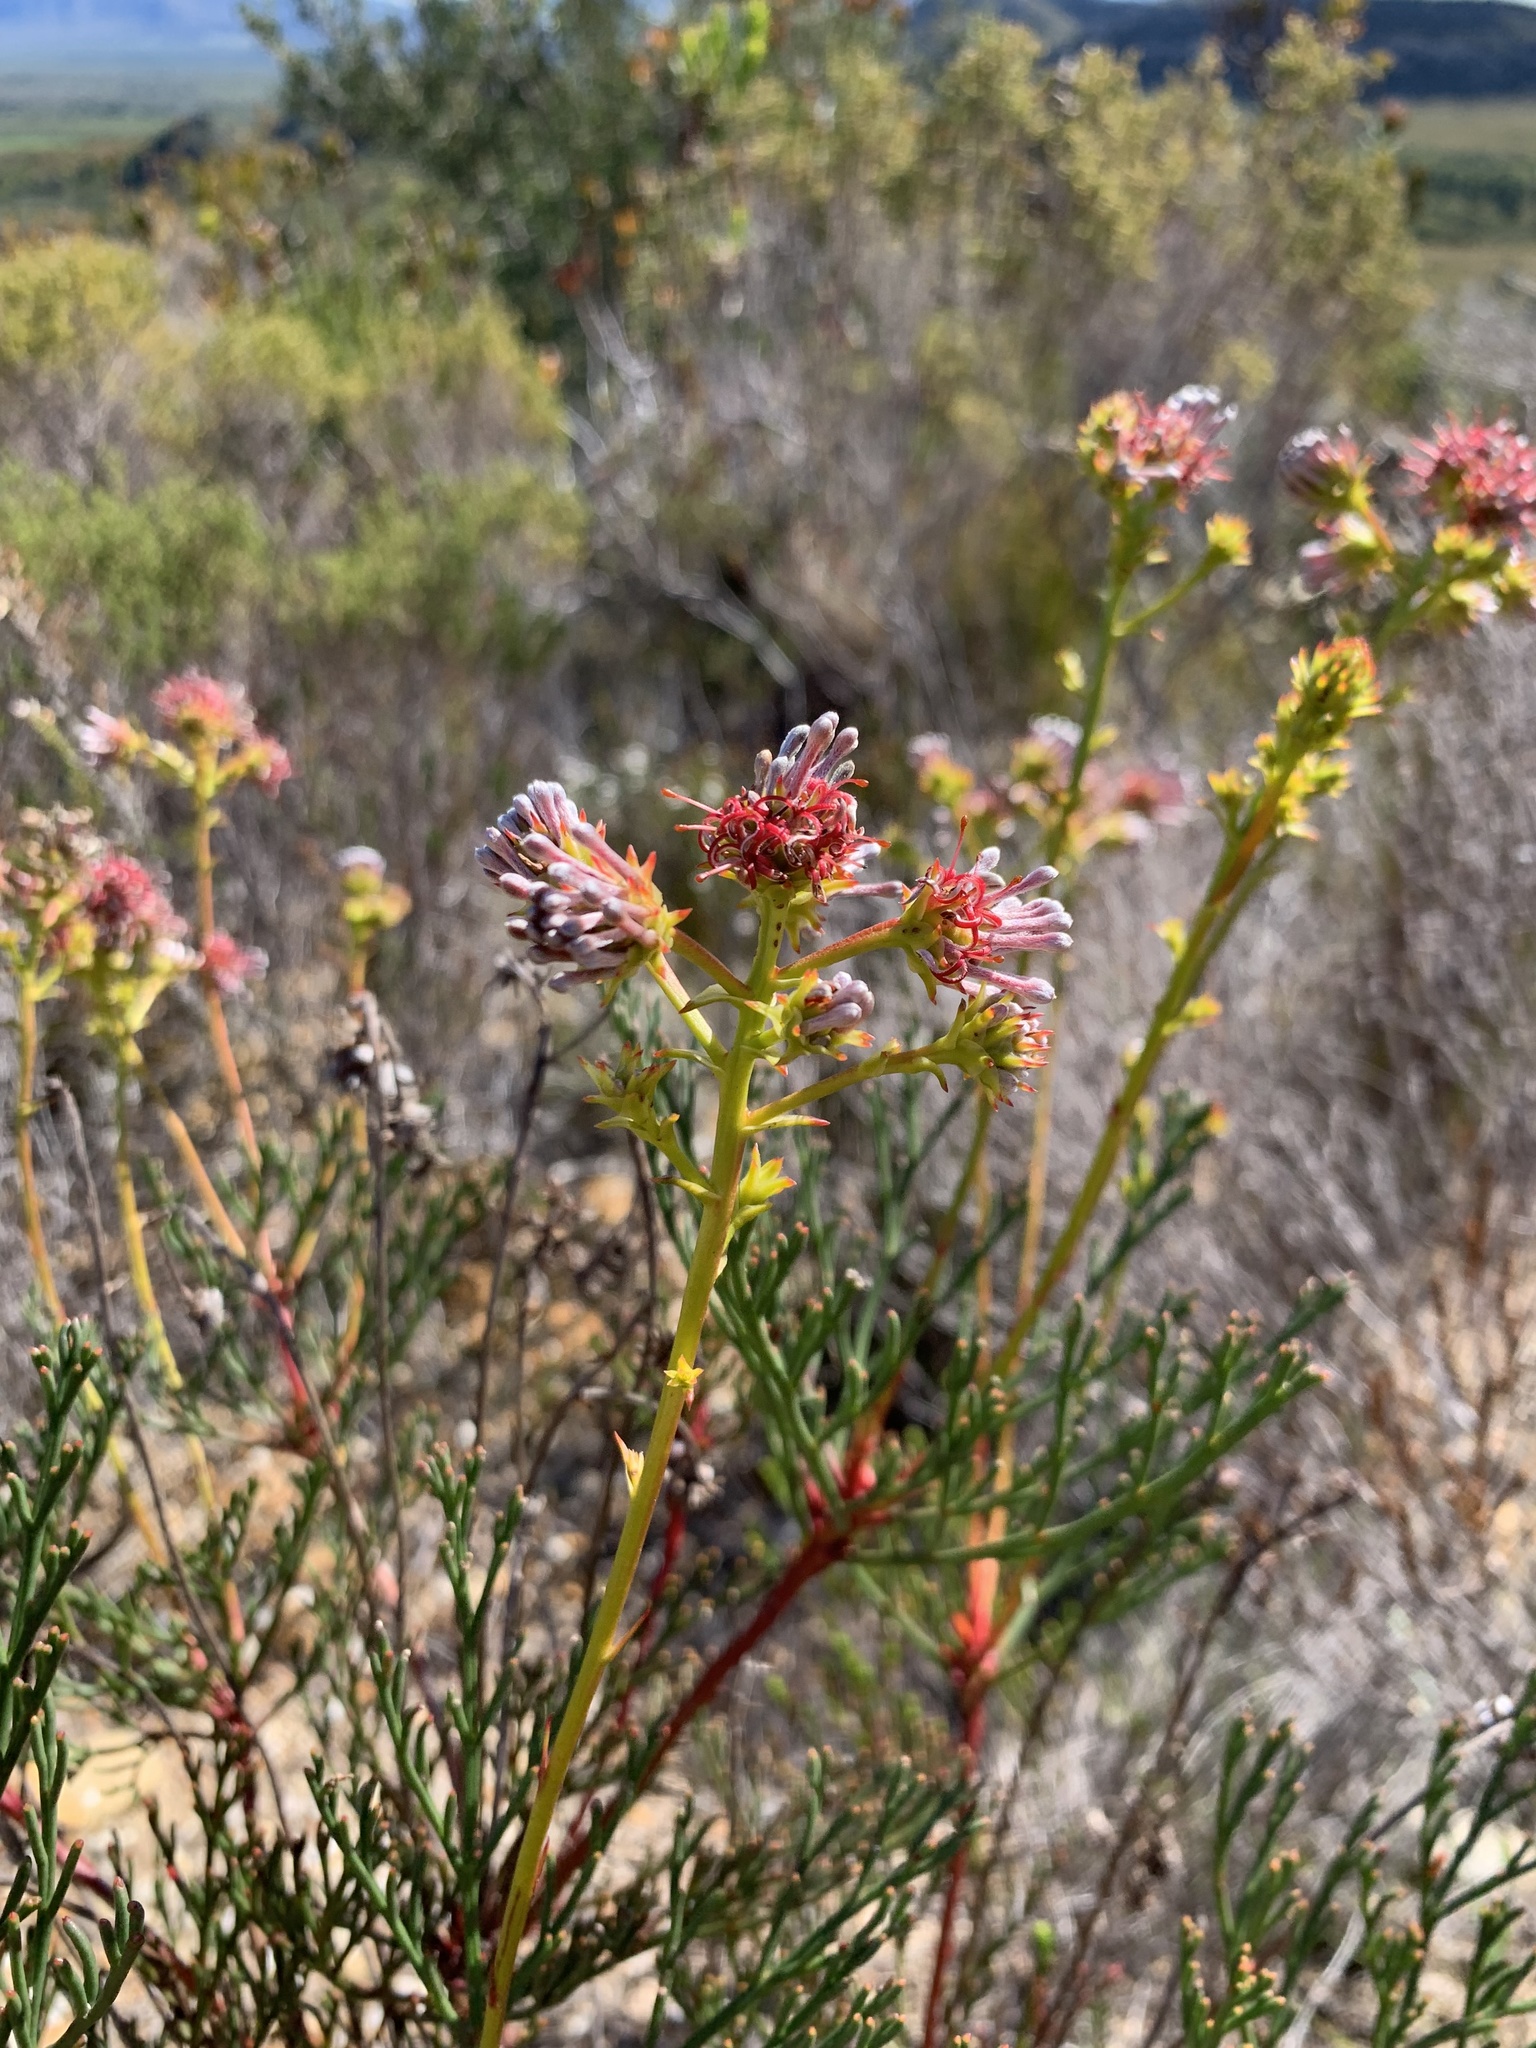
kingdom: Plantae
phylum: Tracheophyta
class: Magnoliopsida
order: Proteales
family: Proteaceae
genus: Serruria
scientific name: Serruria elongata
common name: Long-stalk spiderhead
